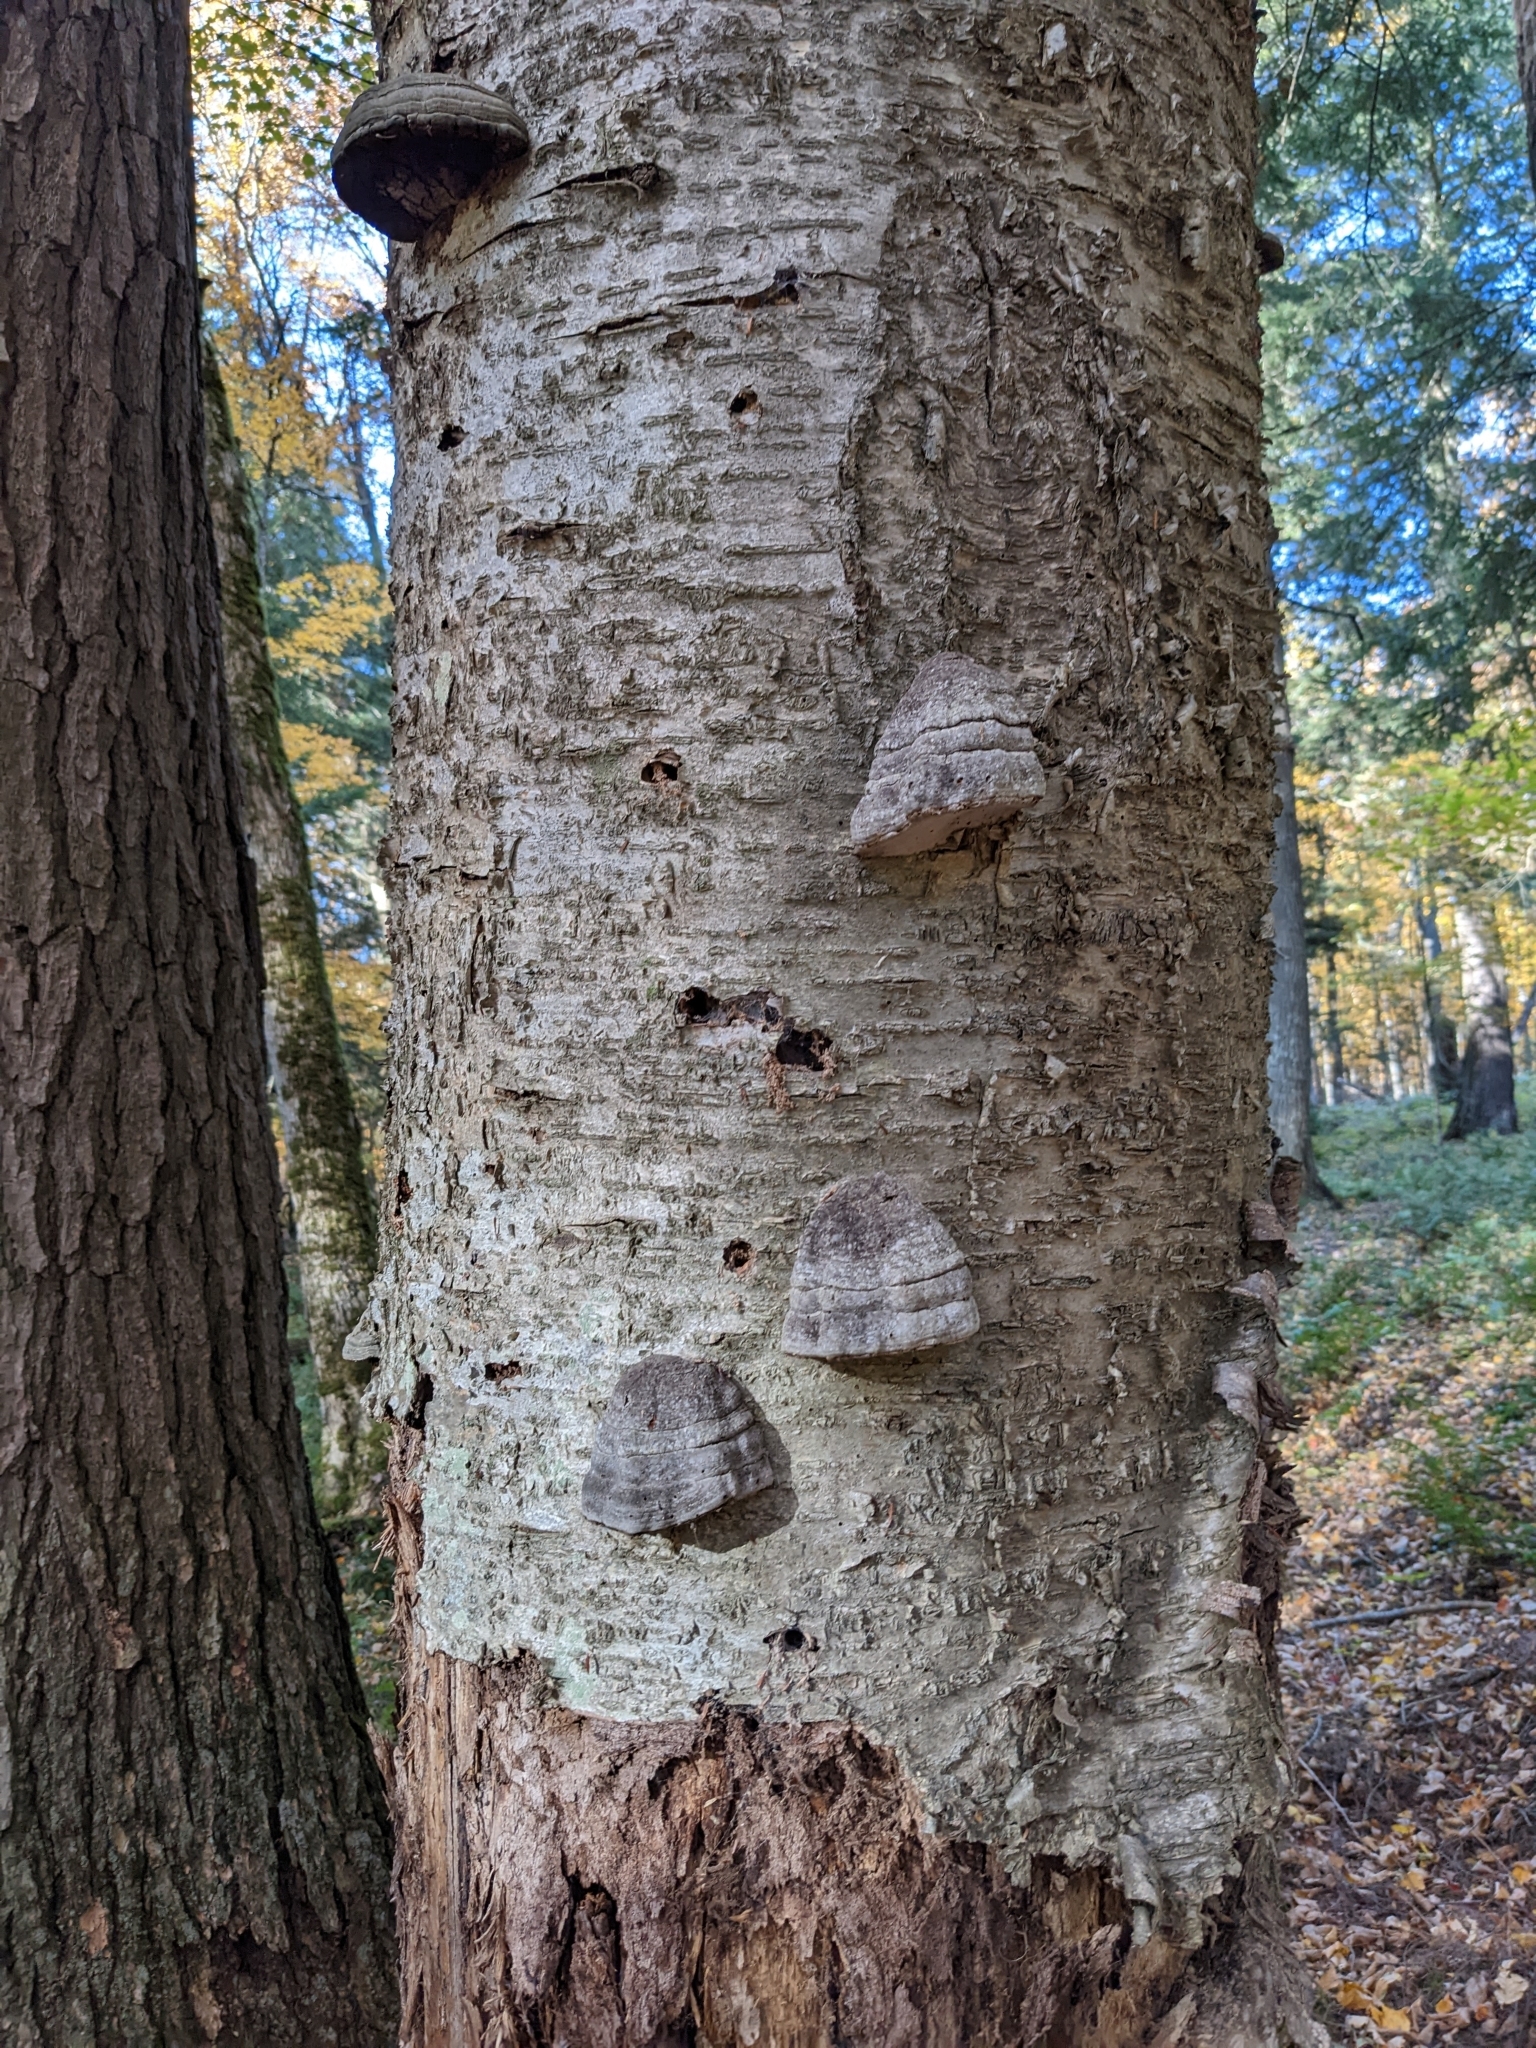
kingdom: Fungi
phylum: Basidiomycota
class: Agaricomycetes
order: Polyporales
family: Polyporaceae
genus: Fomes
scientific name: Fomes fomentarius
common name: Hoof fungus
